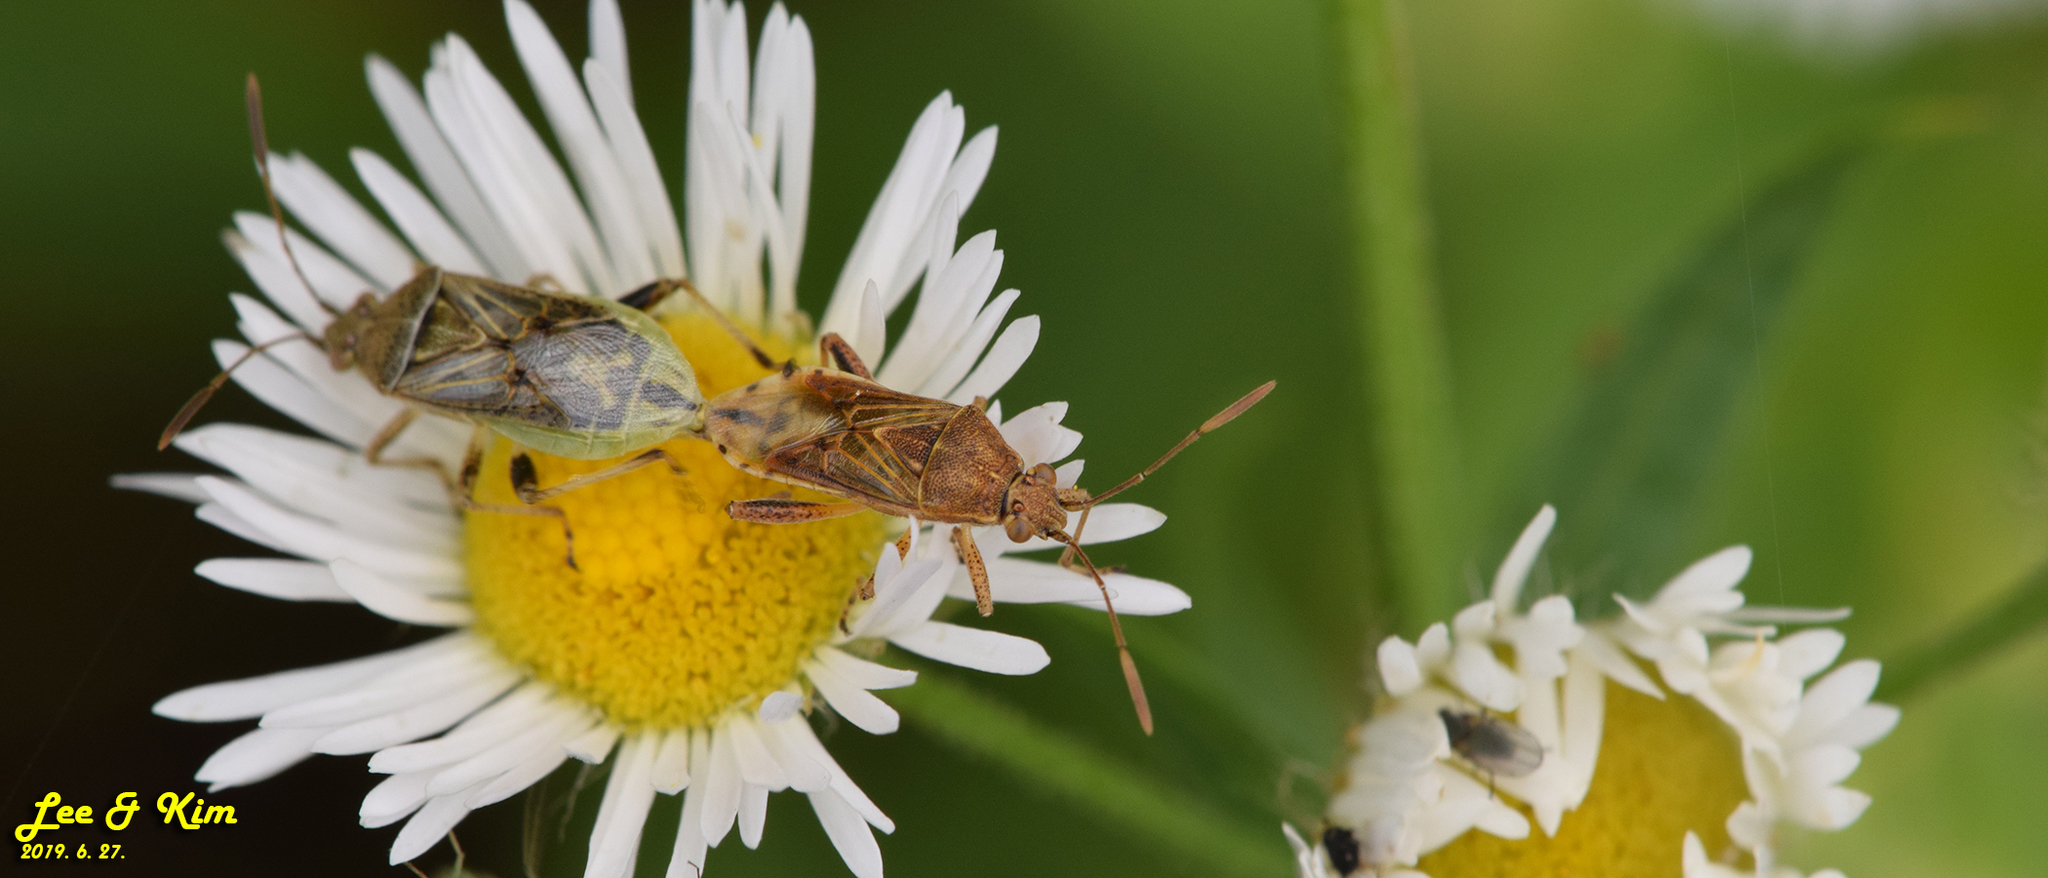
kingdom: Animalia
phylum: Arthropoda
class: Insecta
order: Hemiptera
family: Rhopalidae
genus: Stictopleurus
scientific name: Stictopleurus minutus
